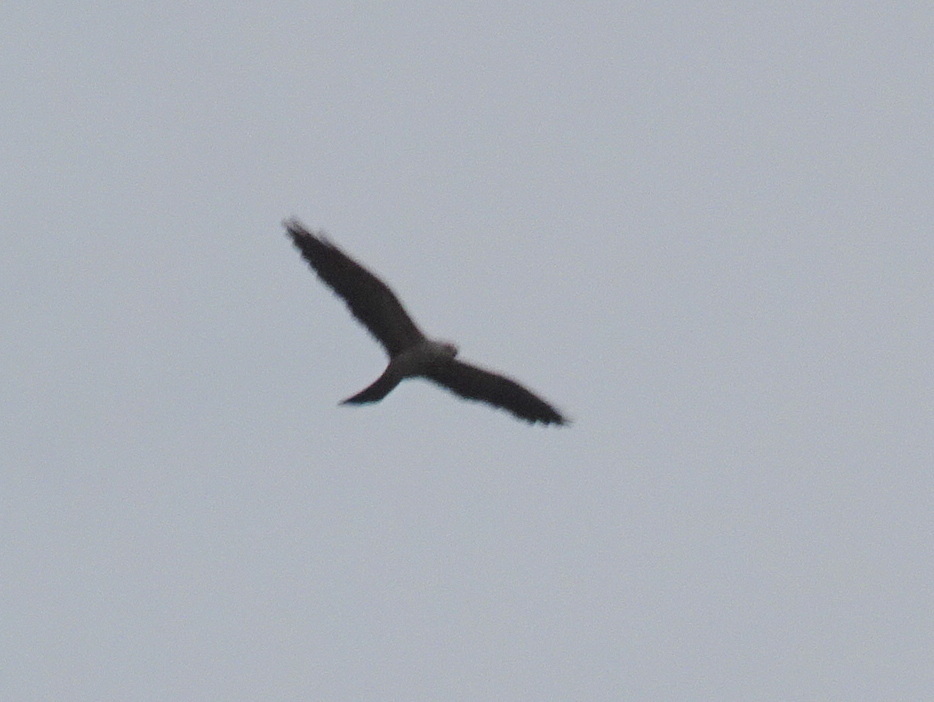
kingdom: Animalia
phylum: Chordata
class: Aves
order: Accipitriformes
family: Accipitridae
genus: Ictinia
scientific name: Ictinia mississippiensis
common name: Mississippi kite
